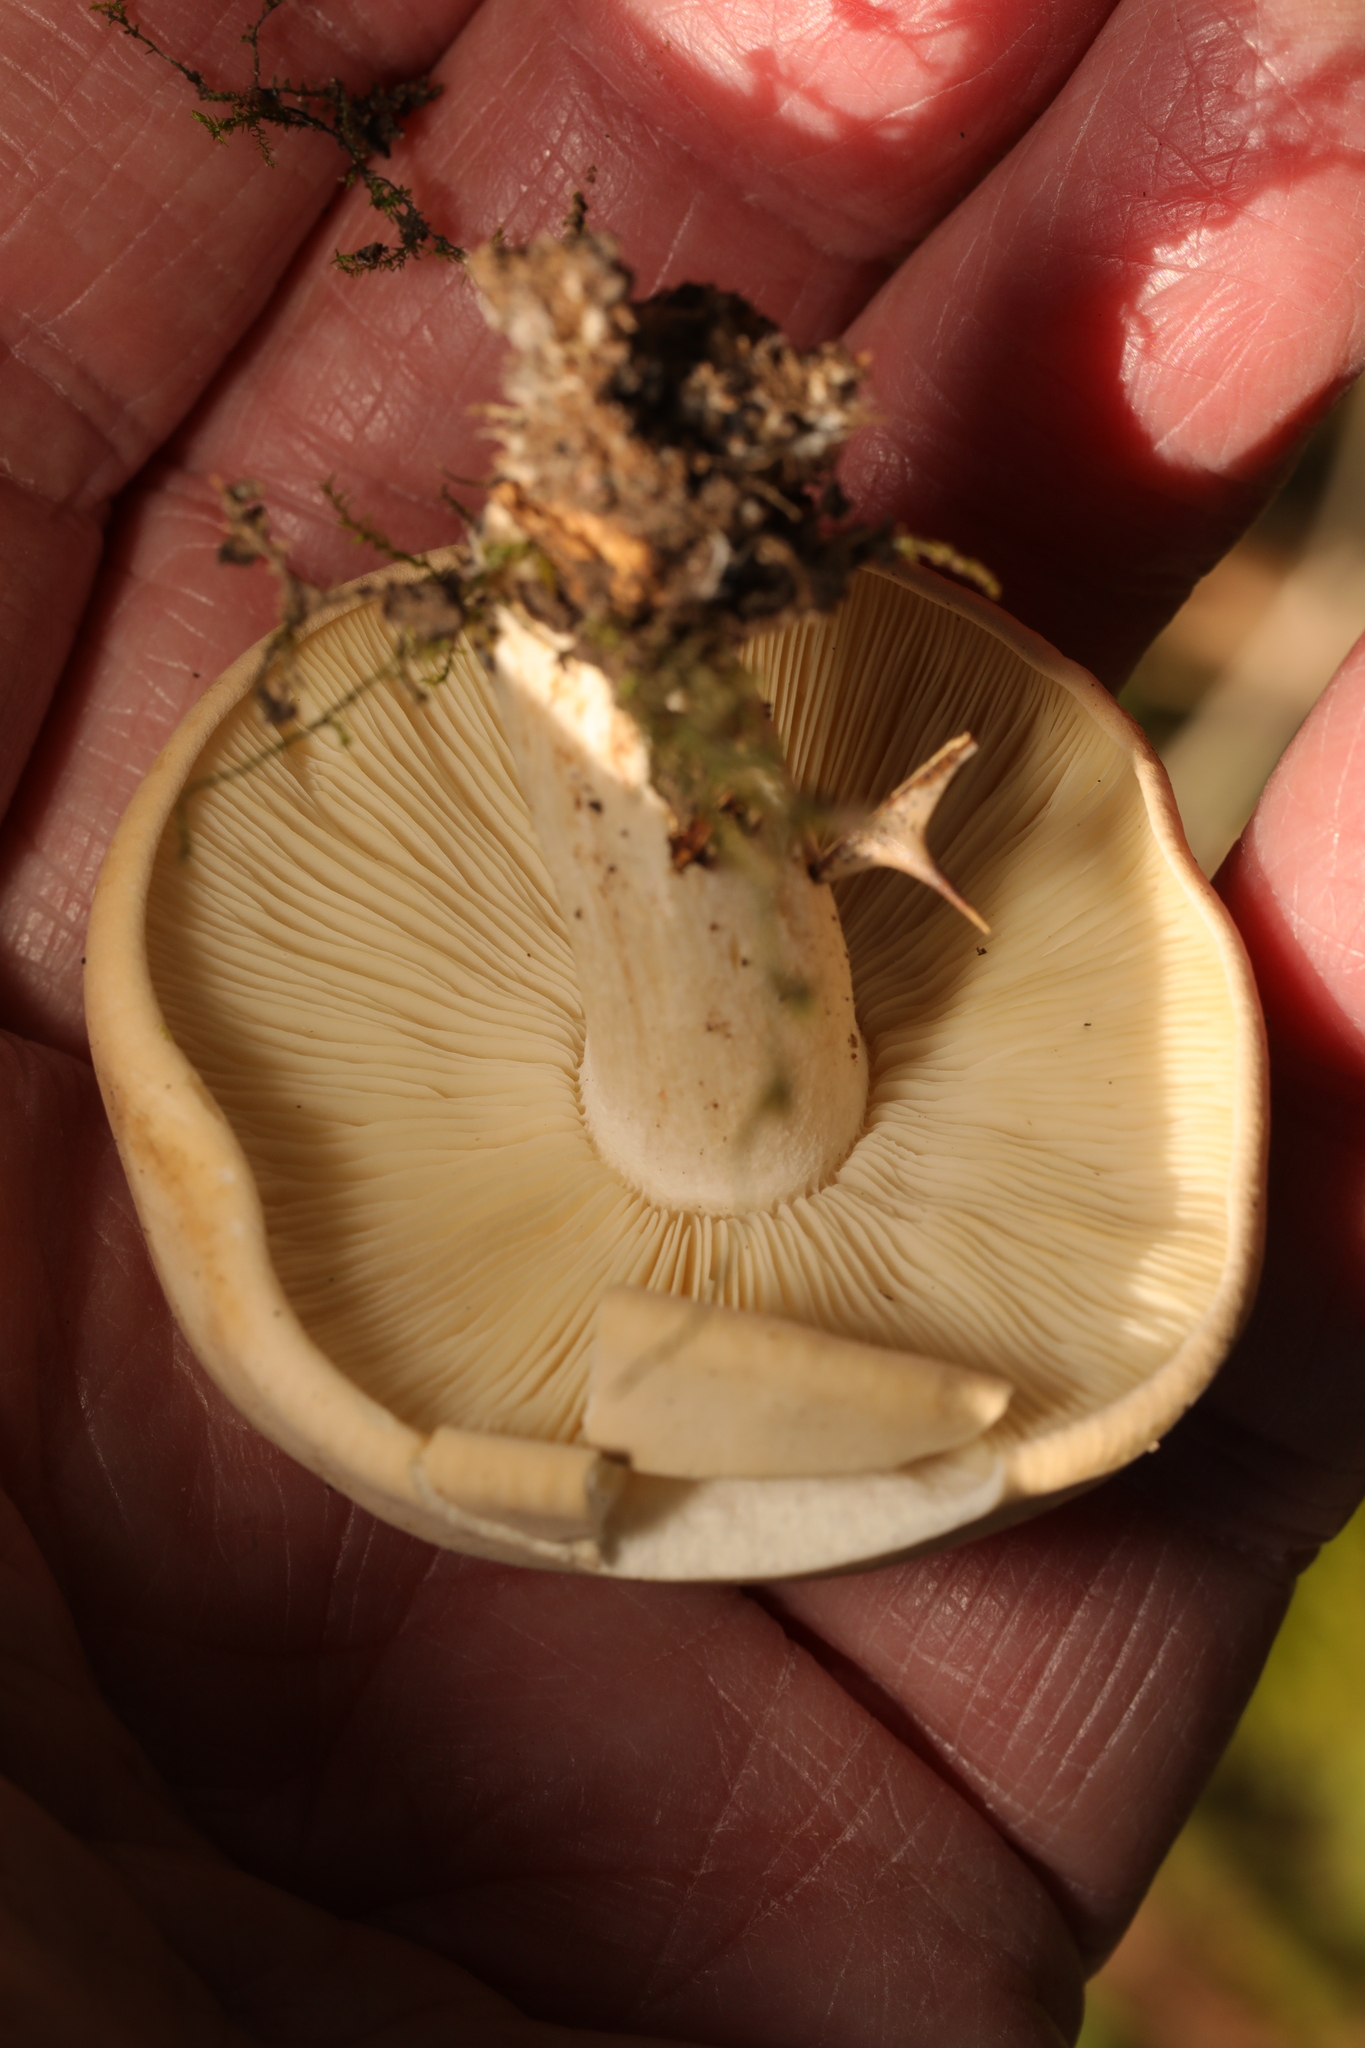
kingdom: Fungi
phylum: Basidiomycota
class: Agaricomycetes
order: Agaricales
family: Lyophyllaceae
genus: Calocybe
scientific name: Calocybe gambosa
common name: St. george's mushroom
